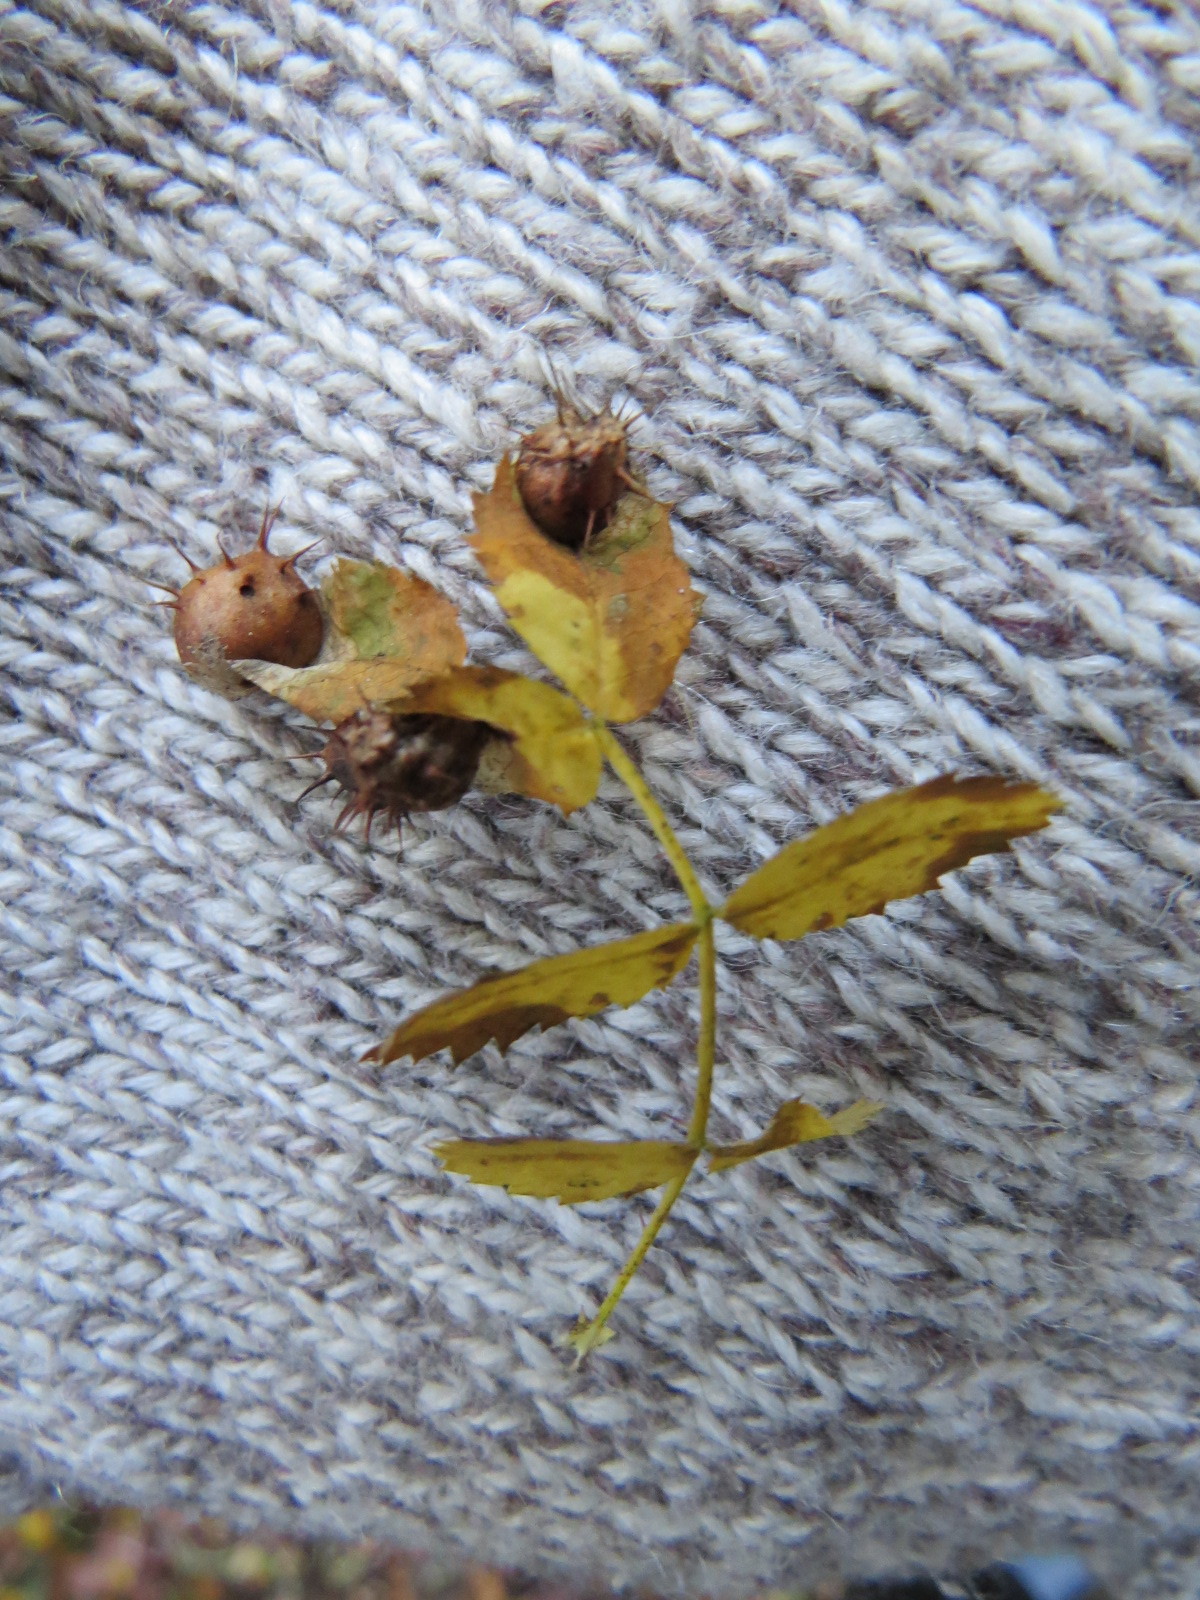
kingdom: Animalia
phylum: Arthropoda
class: Insecta
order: Hymenoptera
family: Cynipidae
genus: Diplolepis
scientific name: Diplolepis polita
